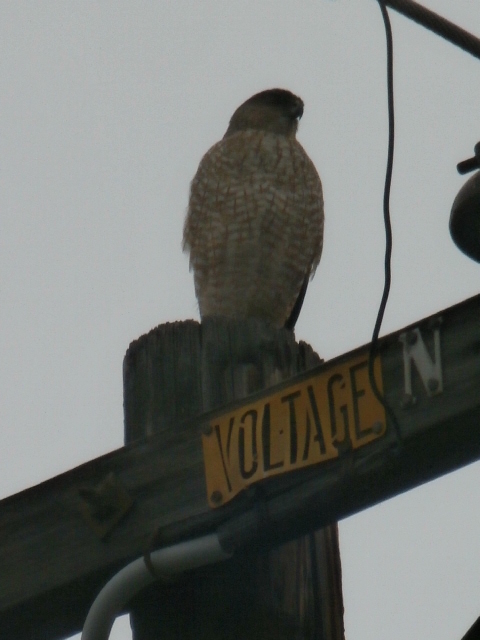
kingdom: Animalia
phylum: Chordata
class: Aves
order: Accipitriformes
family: Accipitridae
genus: Accipiter
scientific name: Accipiter cooperii
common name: Cooper's hawk
